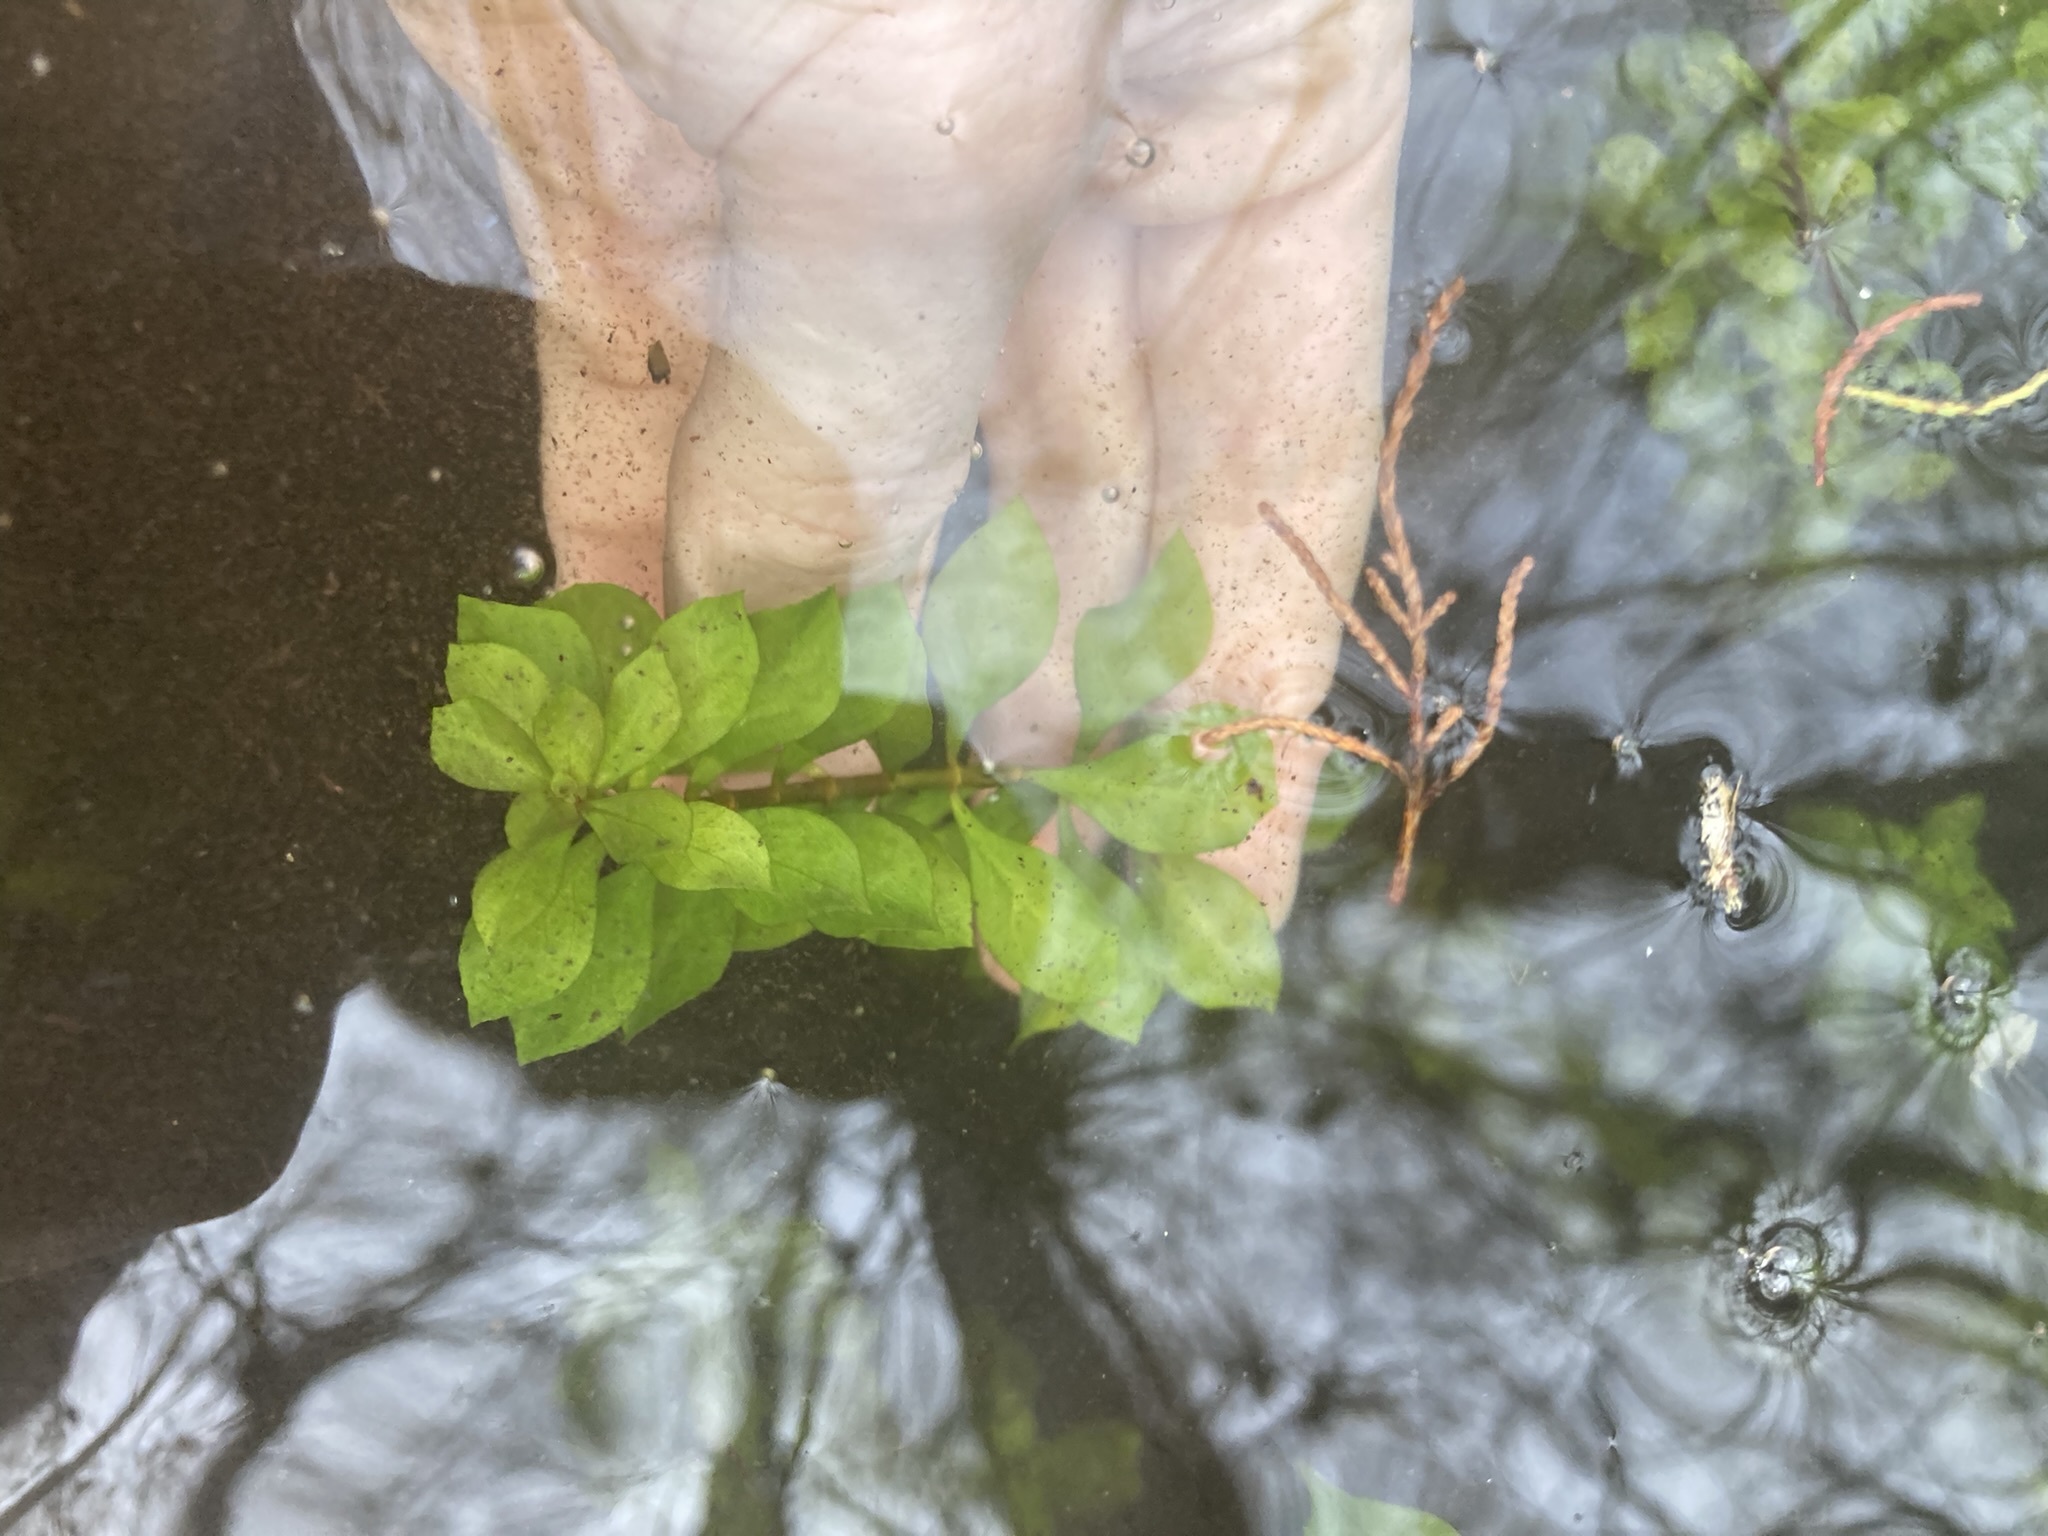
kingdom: Plantae
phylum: Tracheophyta
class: Magnoliopsida
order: Myrtales
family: Onagraceae
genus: Ludwigia
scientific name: Ludwigia repens
